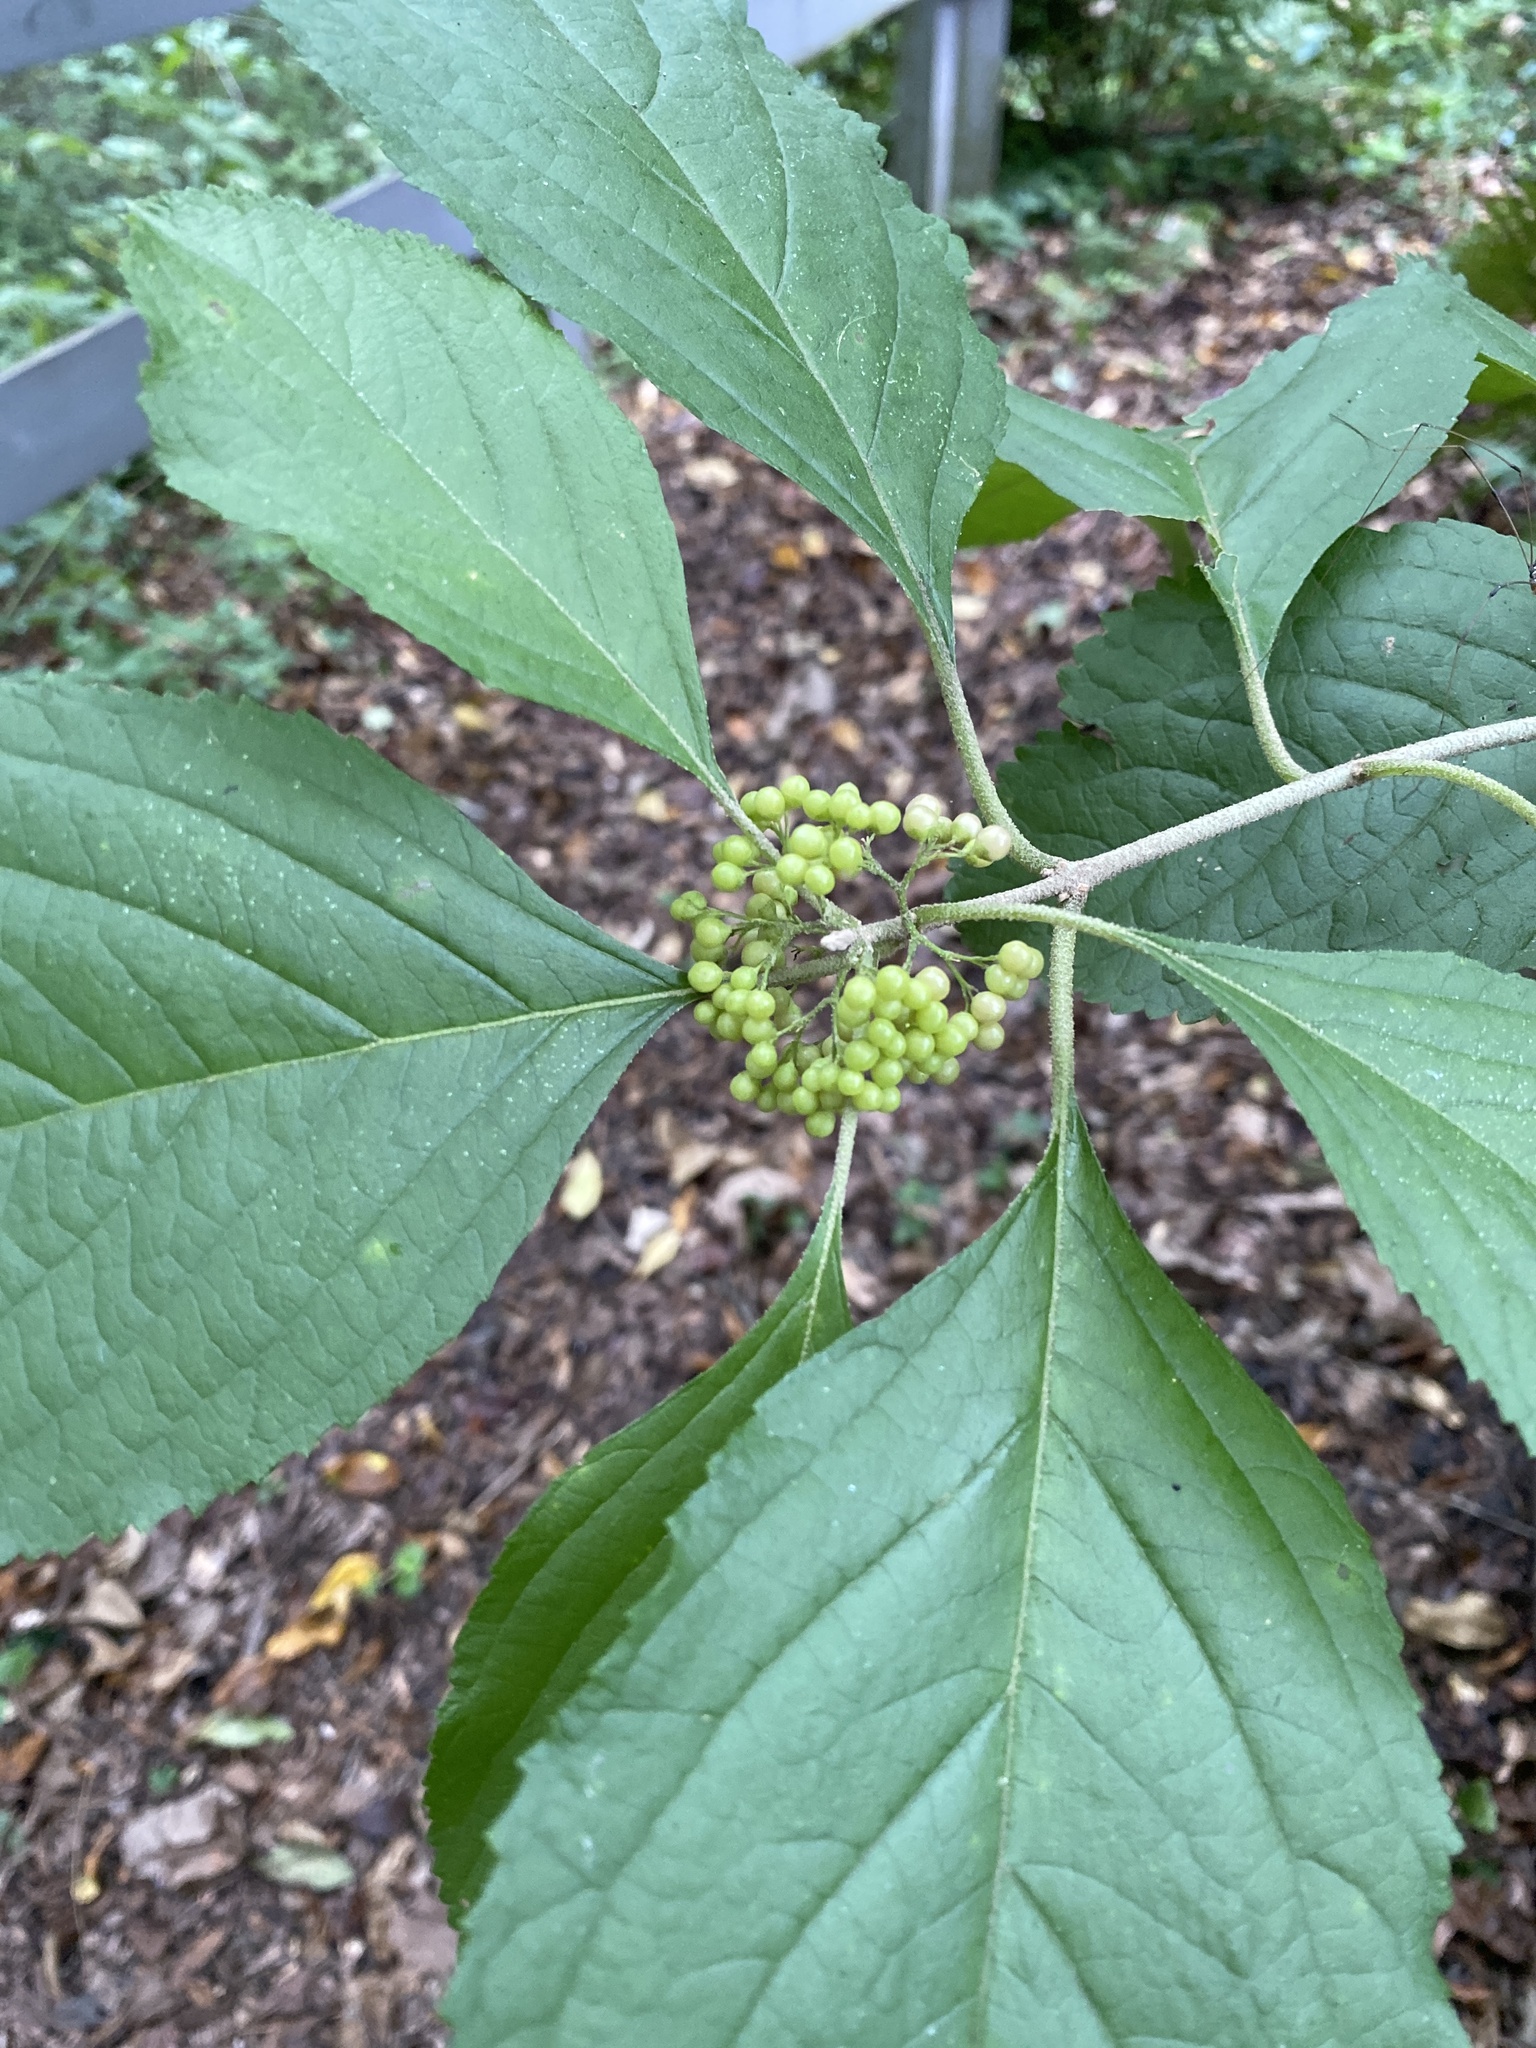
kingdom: Plantae
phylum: Tracheophyta
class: Magnoliopsida
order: Lamiales
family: Lamiaceae
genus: Callicarpa
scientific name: Callicarpa americana
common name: American beautyberry
